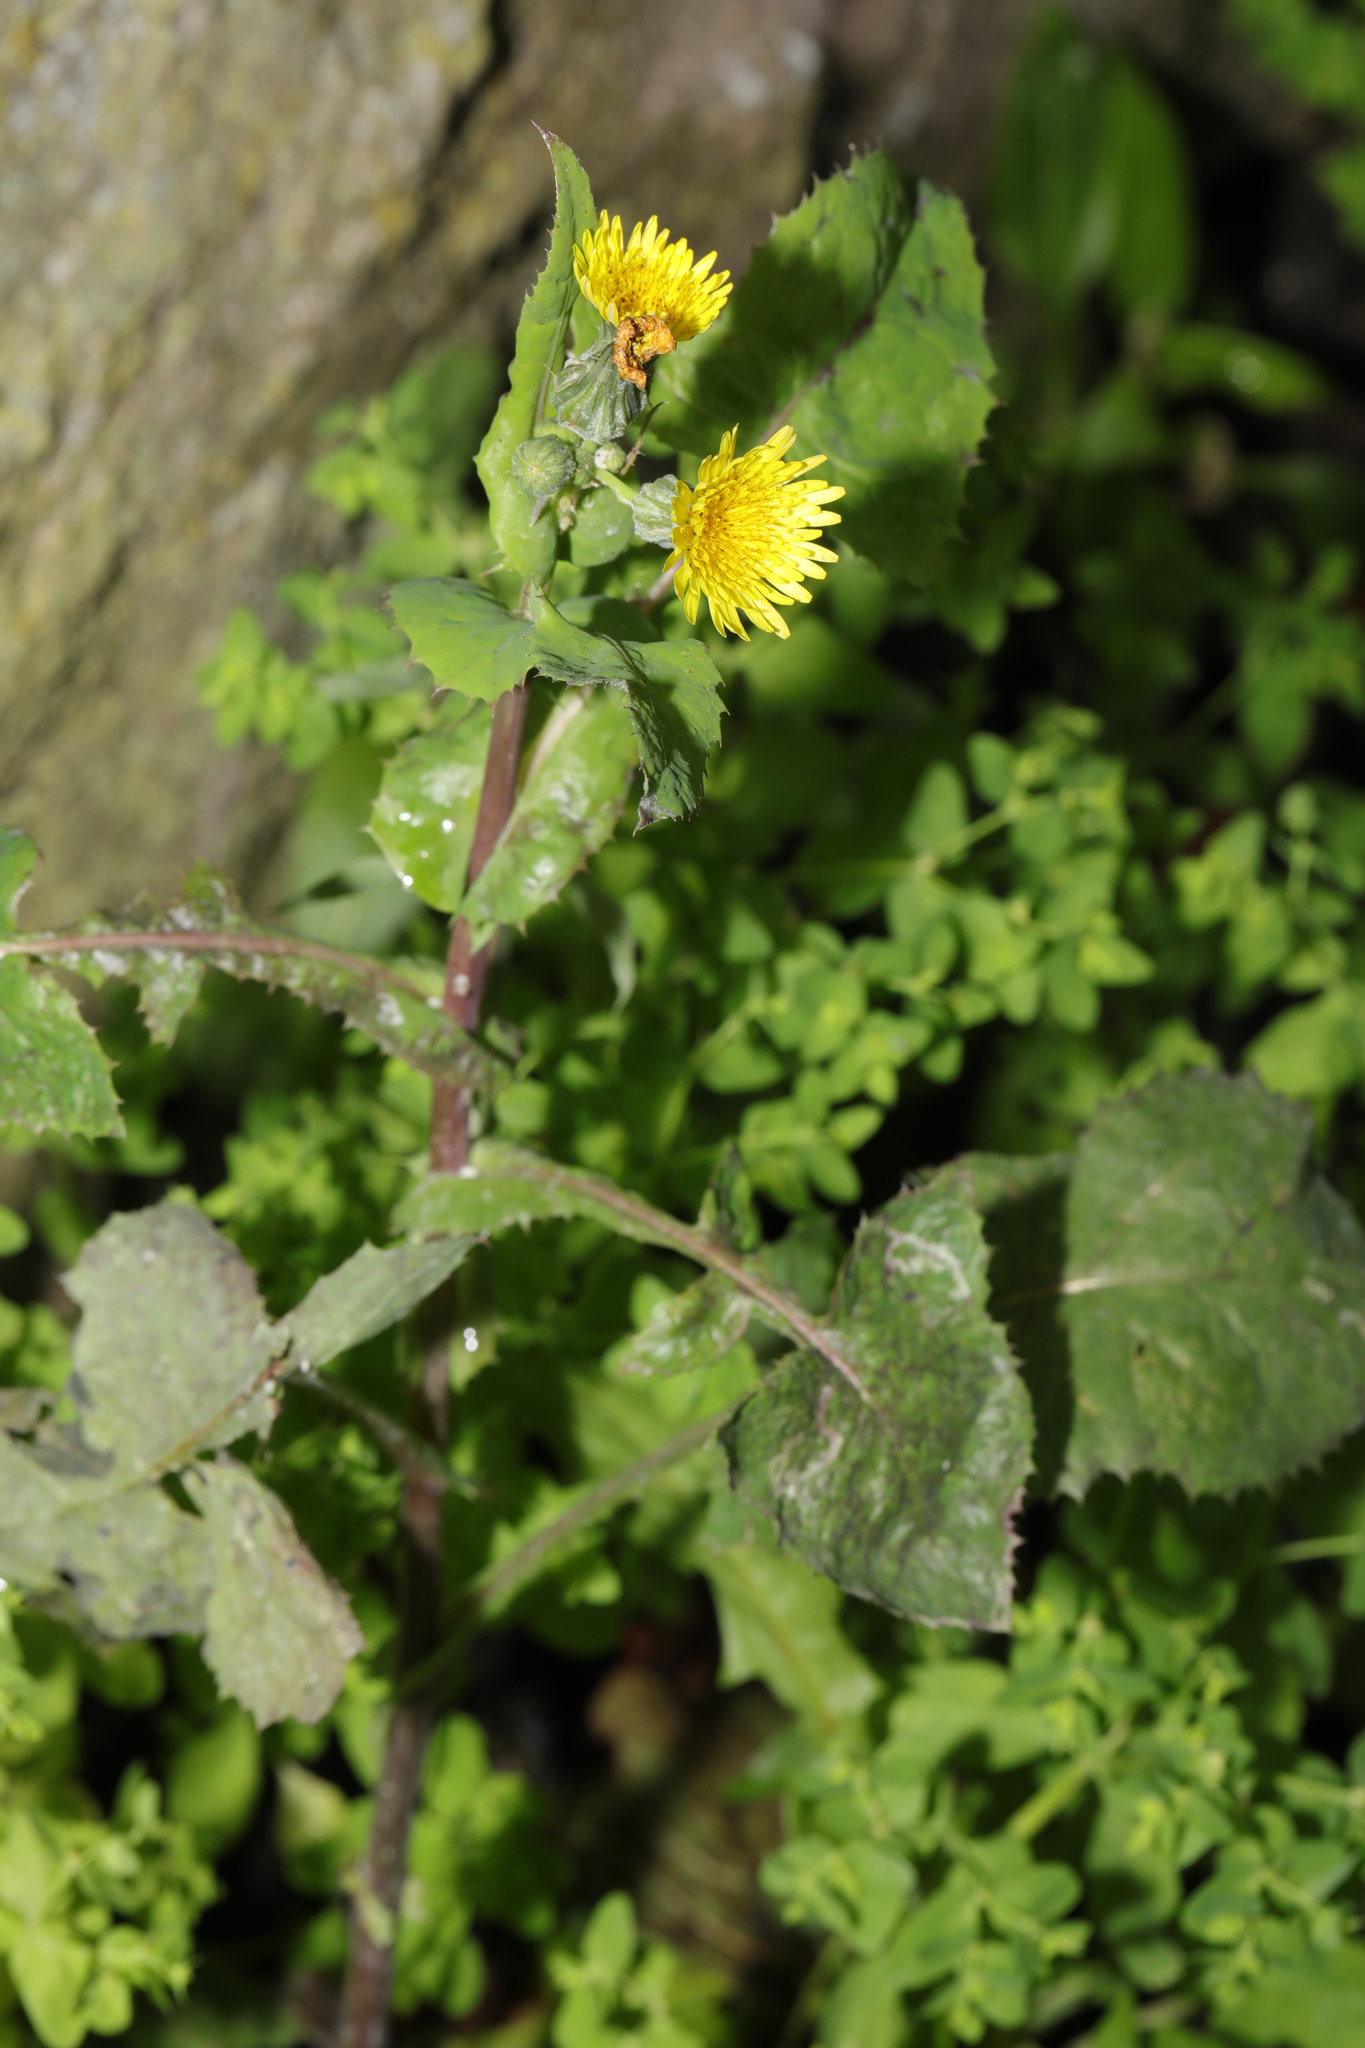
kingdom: Plantae
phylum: Tracheophyta
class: Magnoliopsida
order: Asterales
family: Asteraceae
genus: Sonchus
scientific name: Sonchus oleraceus
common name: Common sowthistle
